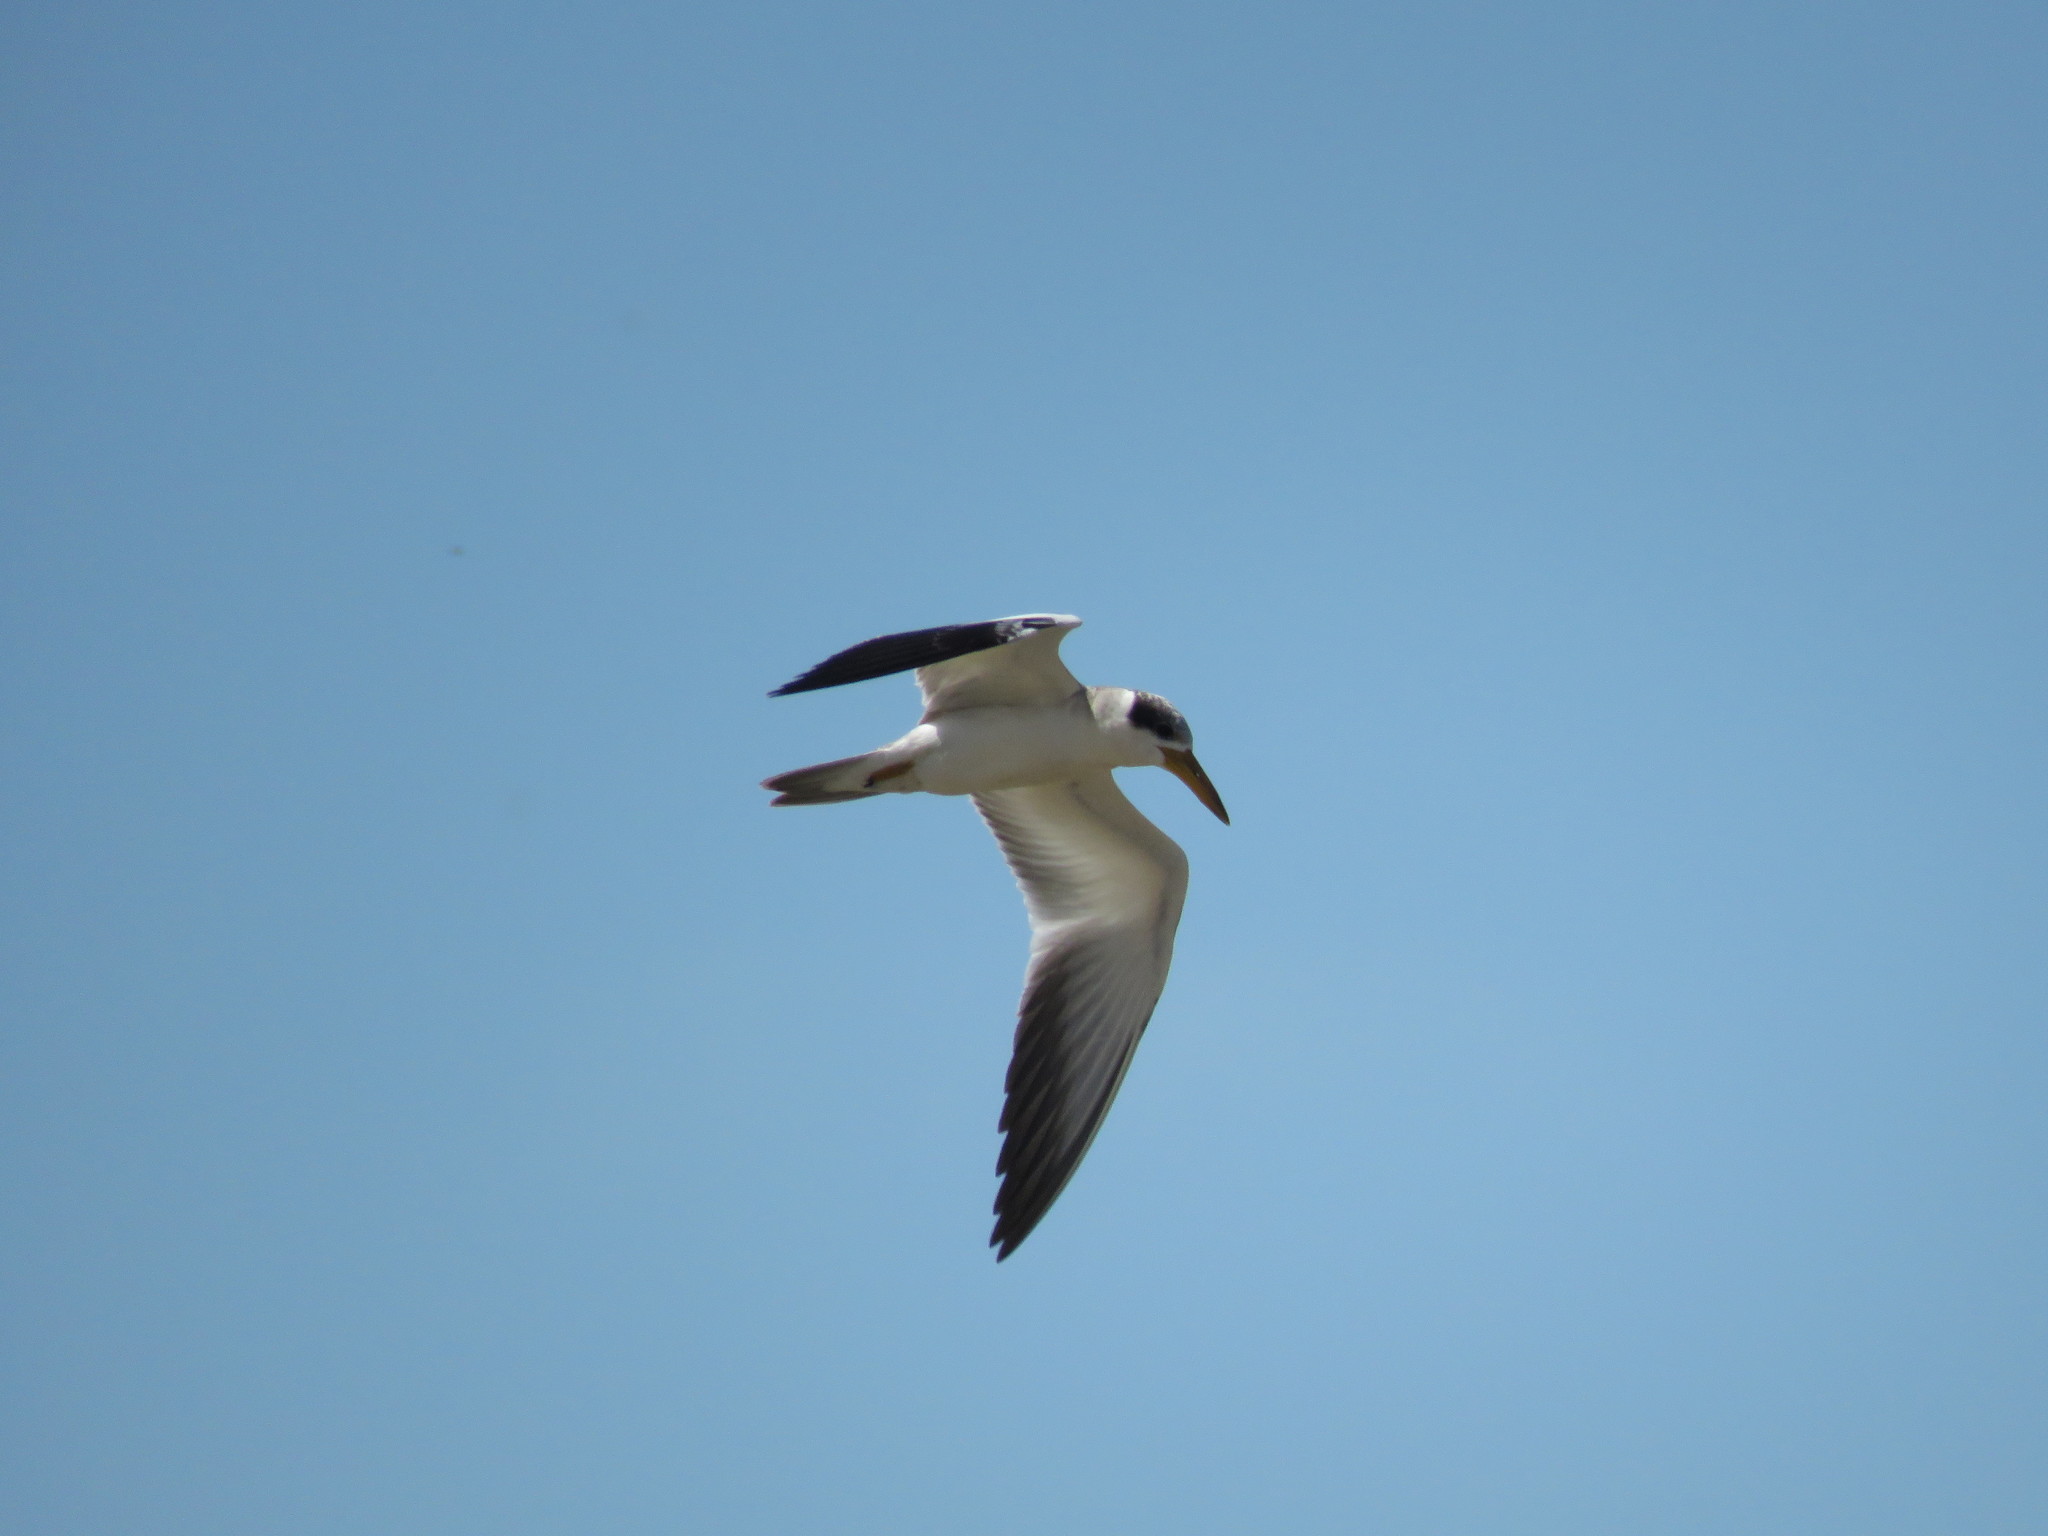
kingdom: Animalia
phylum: Chordata
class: Aves
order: Charadriiformes
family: Laridae
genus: Phaetusa
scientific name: Phaetusa simplex
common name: Large-billed tern
